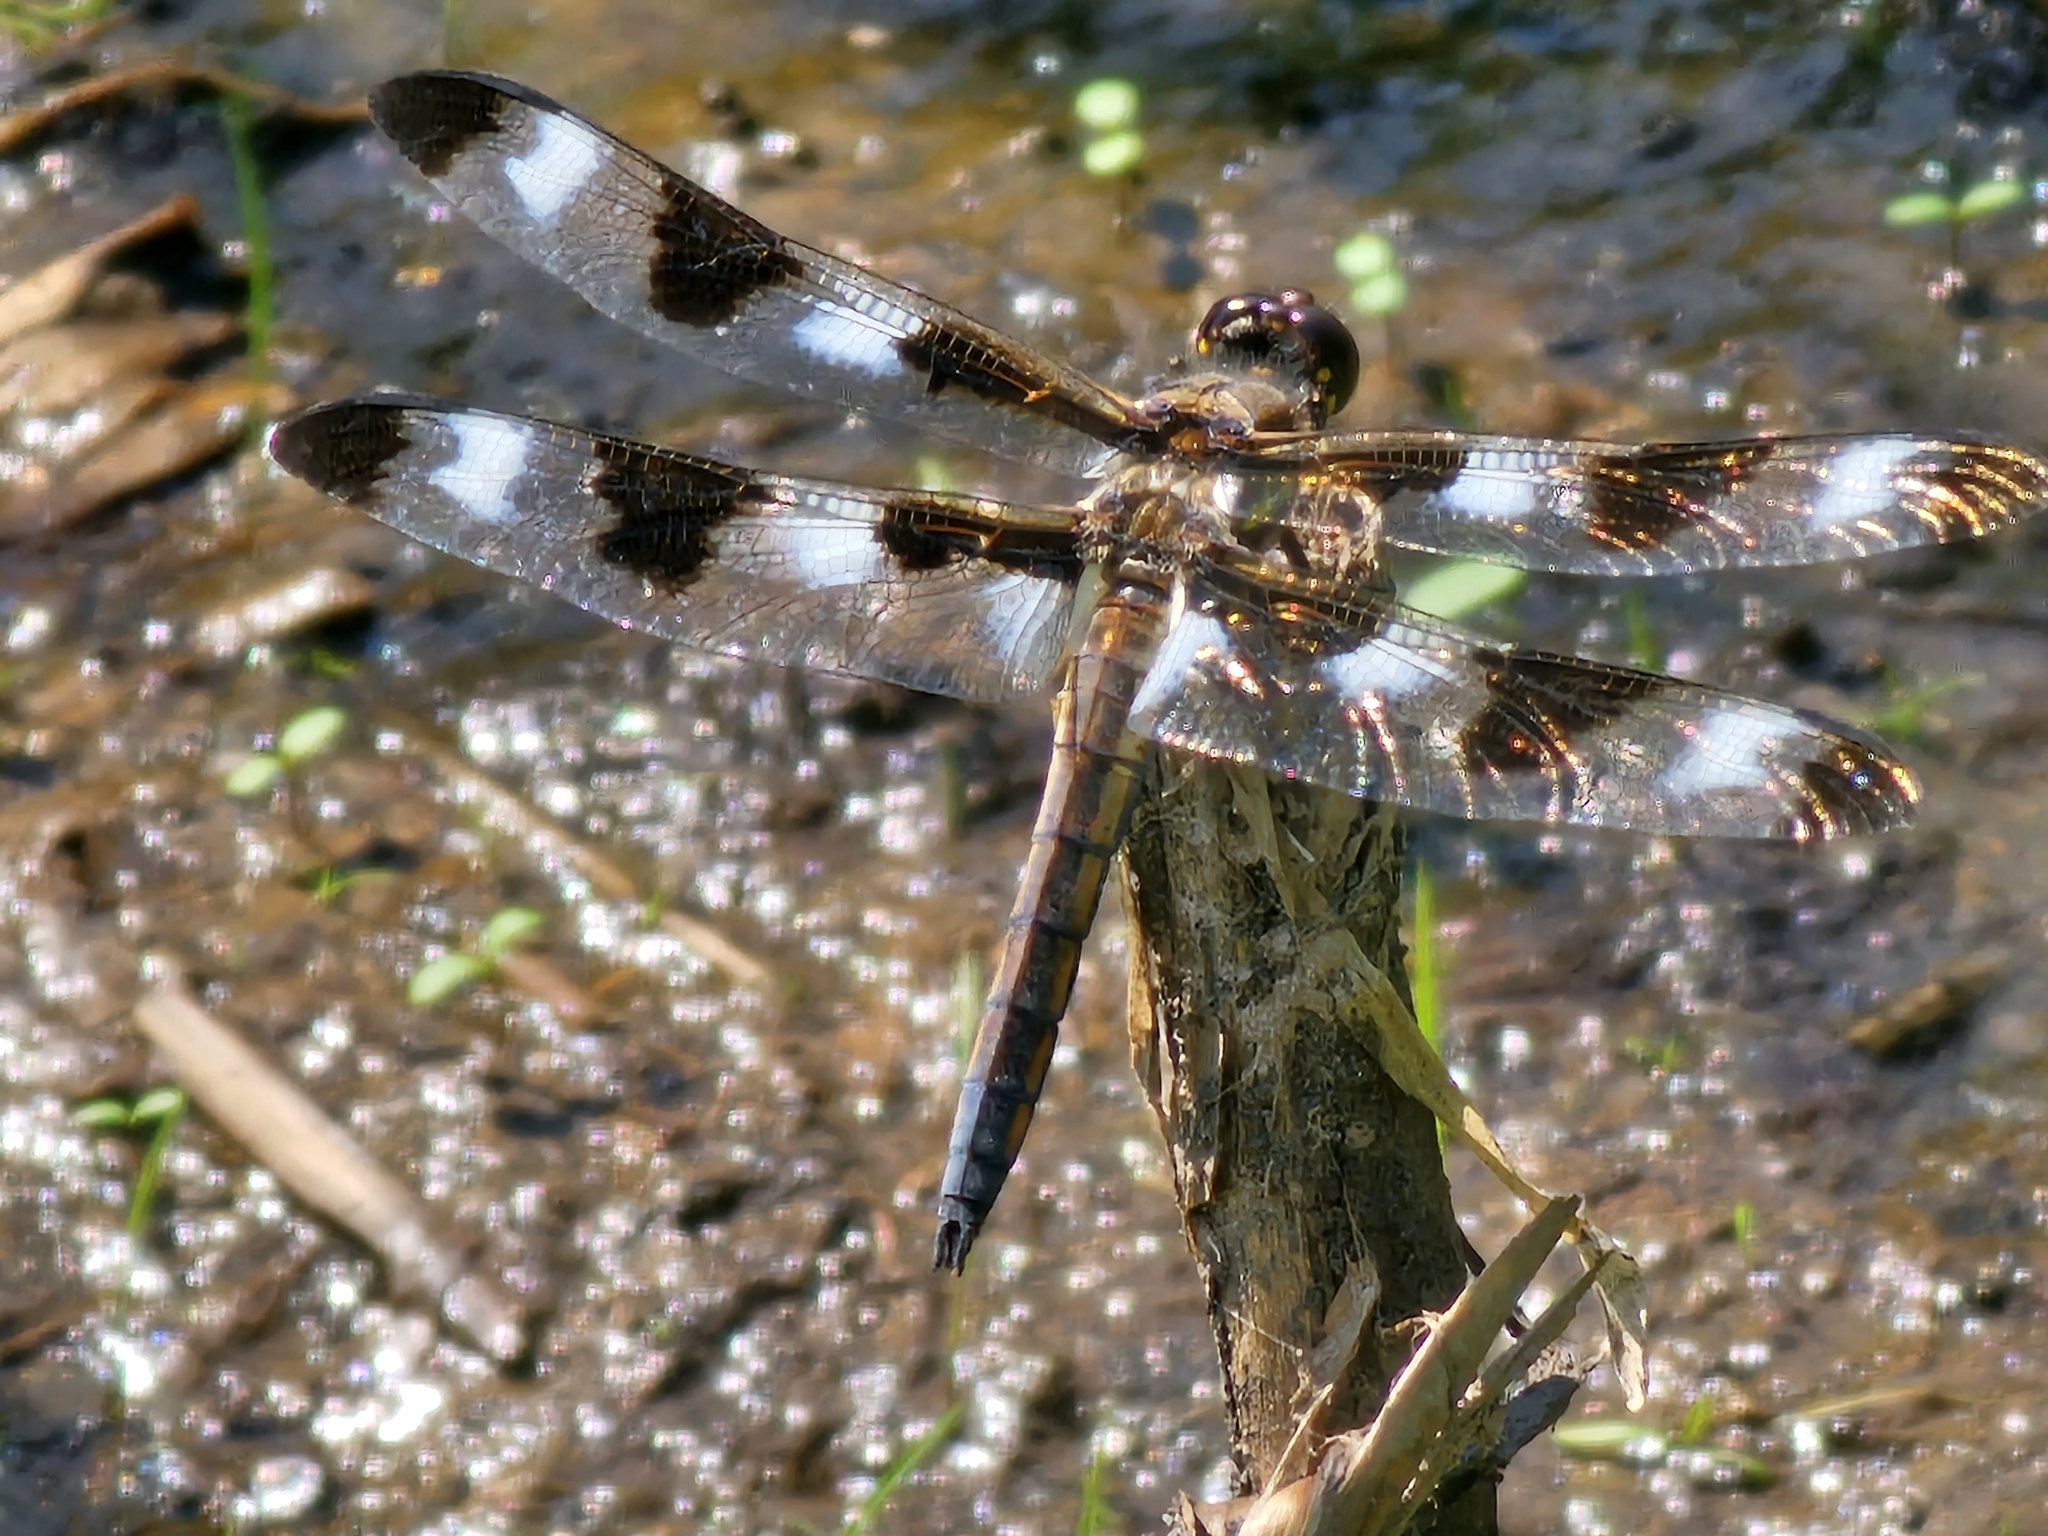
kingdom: Animalia
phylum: Arthropoda
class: Insecta
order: Odonata
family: Libellulidae
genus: Libellula
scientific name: Libellula pulchella
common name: Twelve-spotted skimmer
